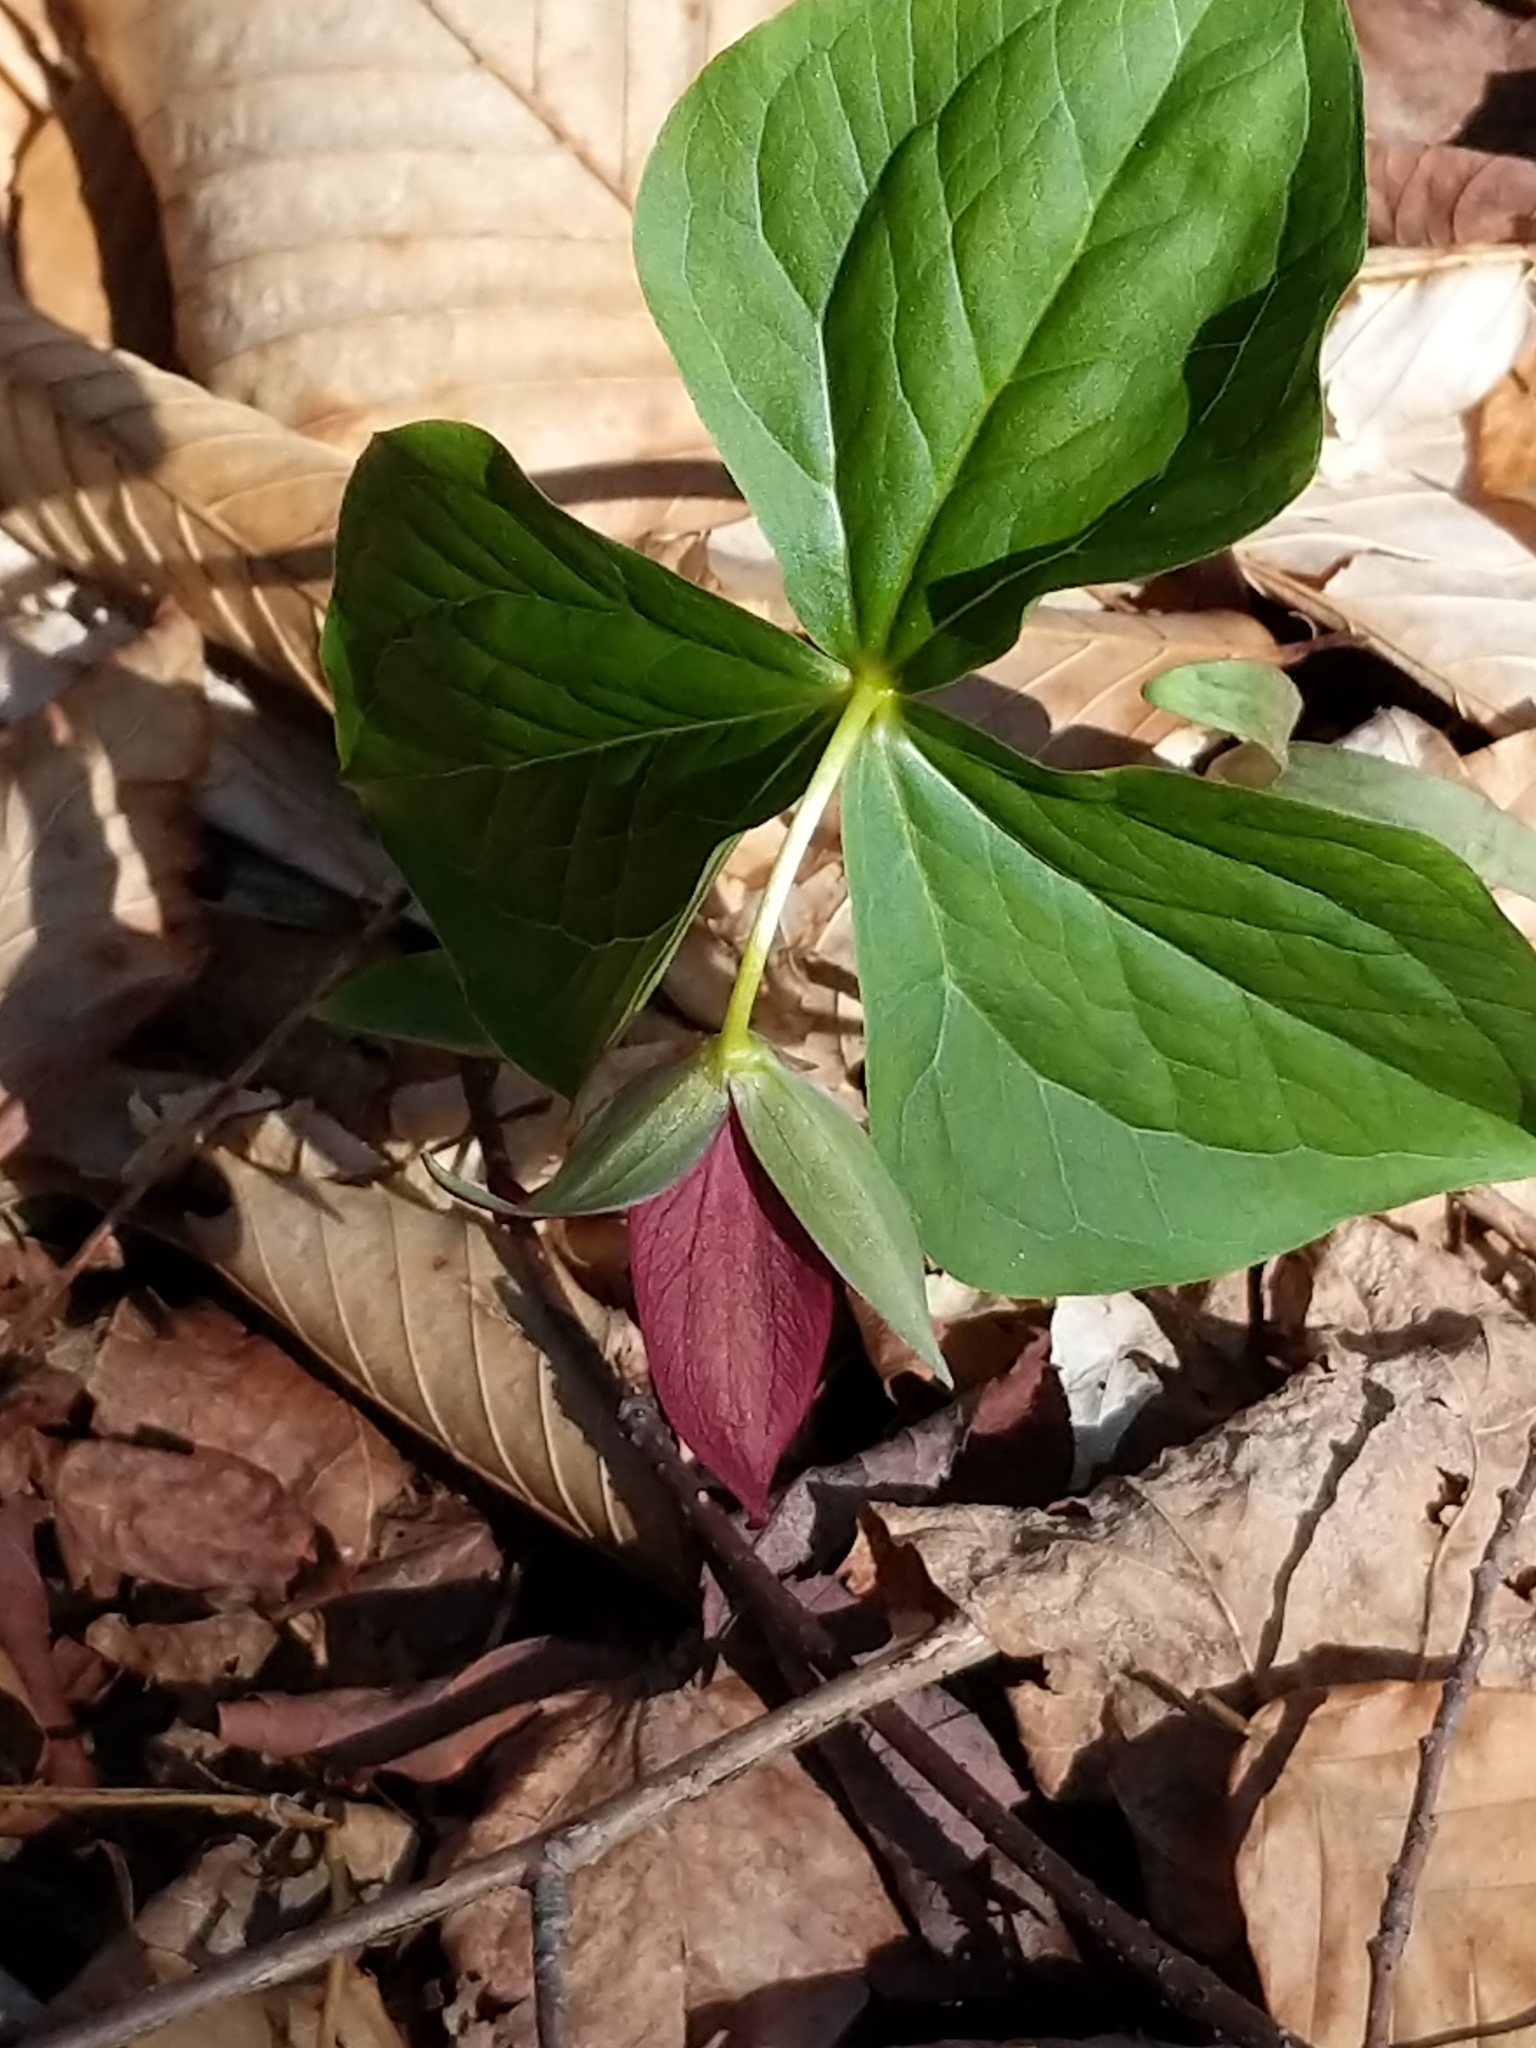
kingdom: Plantae
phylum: Tracheophyta
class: Liliopsida
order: Liliales
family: Melanthiaceae
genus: Trillium
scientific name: Trillium erectum
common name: Purple trillium
